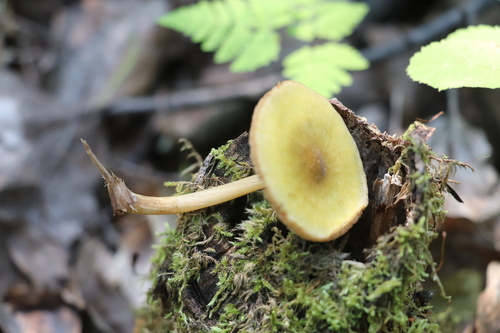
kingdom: Fungi
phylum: Basidiomycota
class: Agaricomycetes
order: Agaricales
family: Pluteaceae
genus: Pluteus
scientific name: Pluteus leoninus
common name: Lion shield
